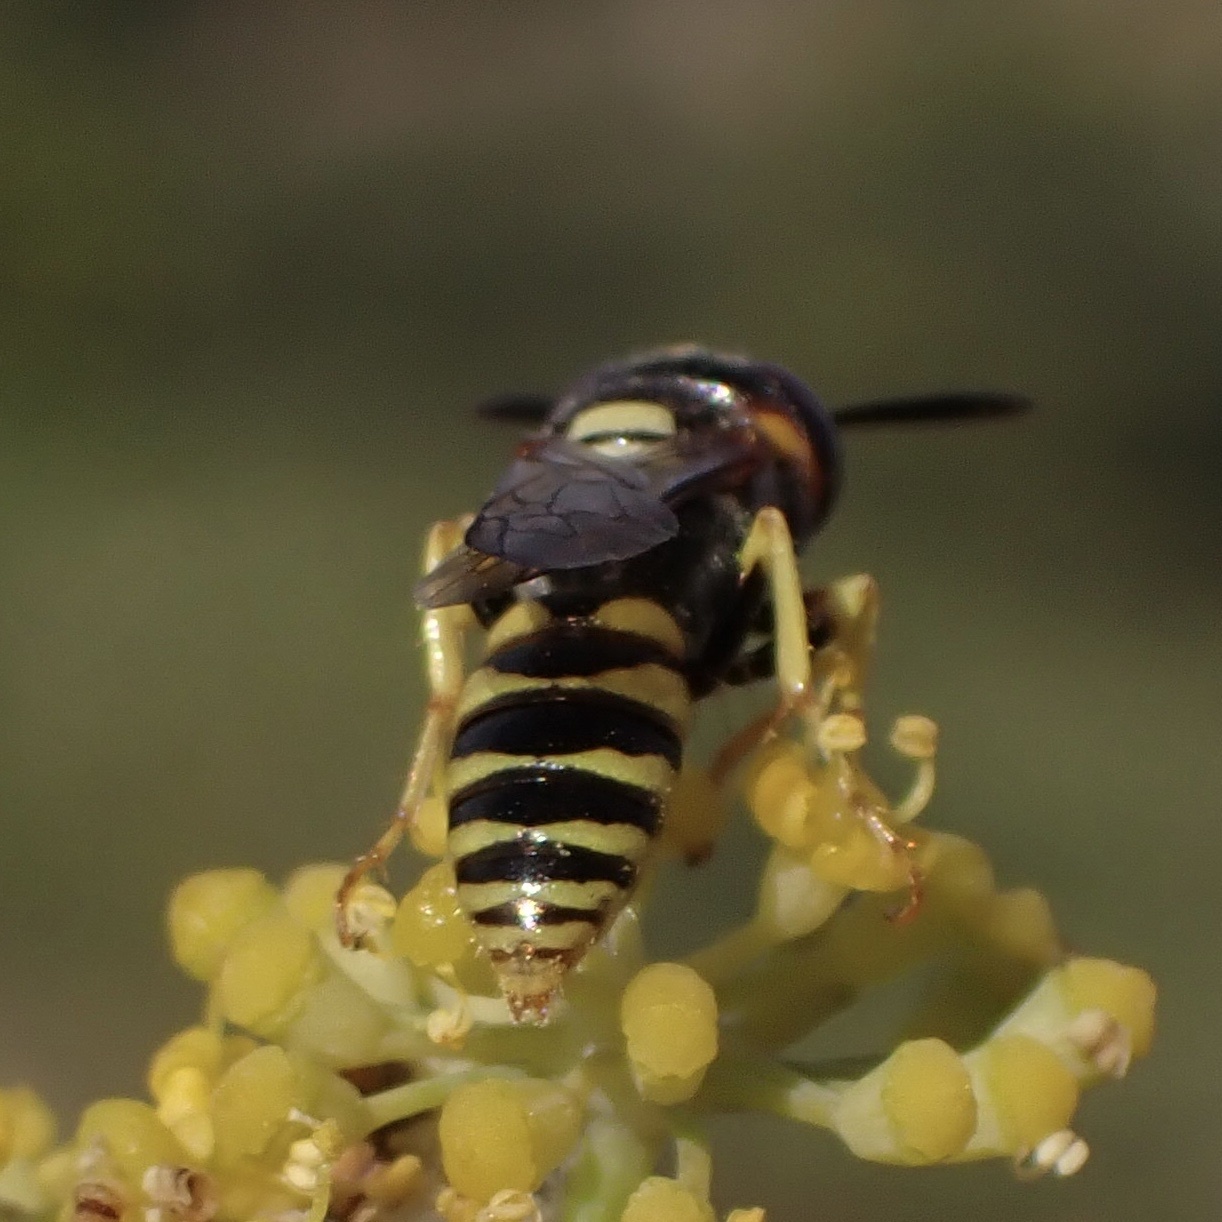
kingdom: Animalia
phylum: Arthropoda
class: Insecta
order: Hymenoptera
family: Crabronidae
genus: Philanthus
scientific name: Philanthus triangulum
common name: Bee wolf
